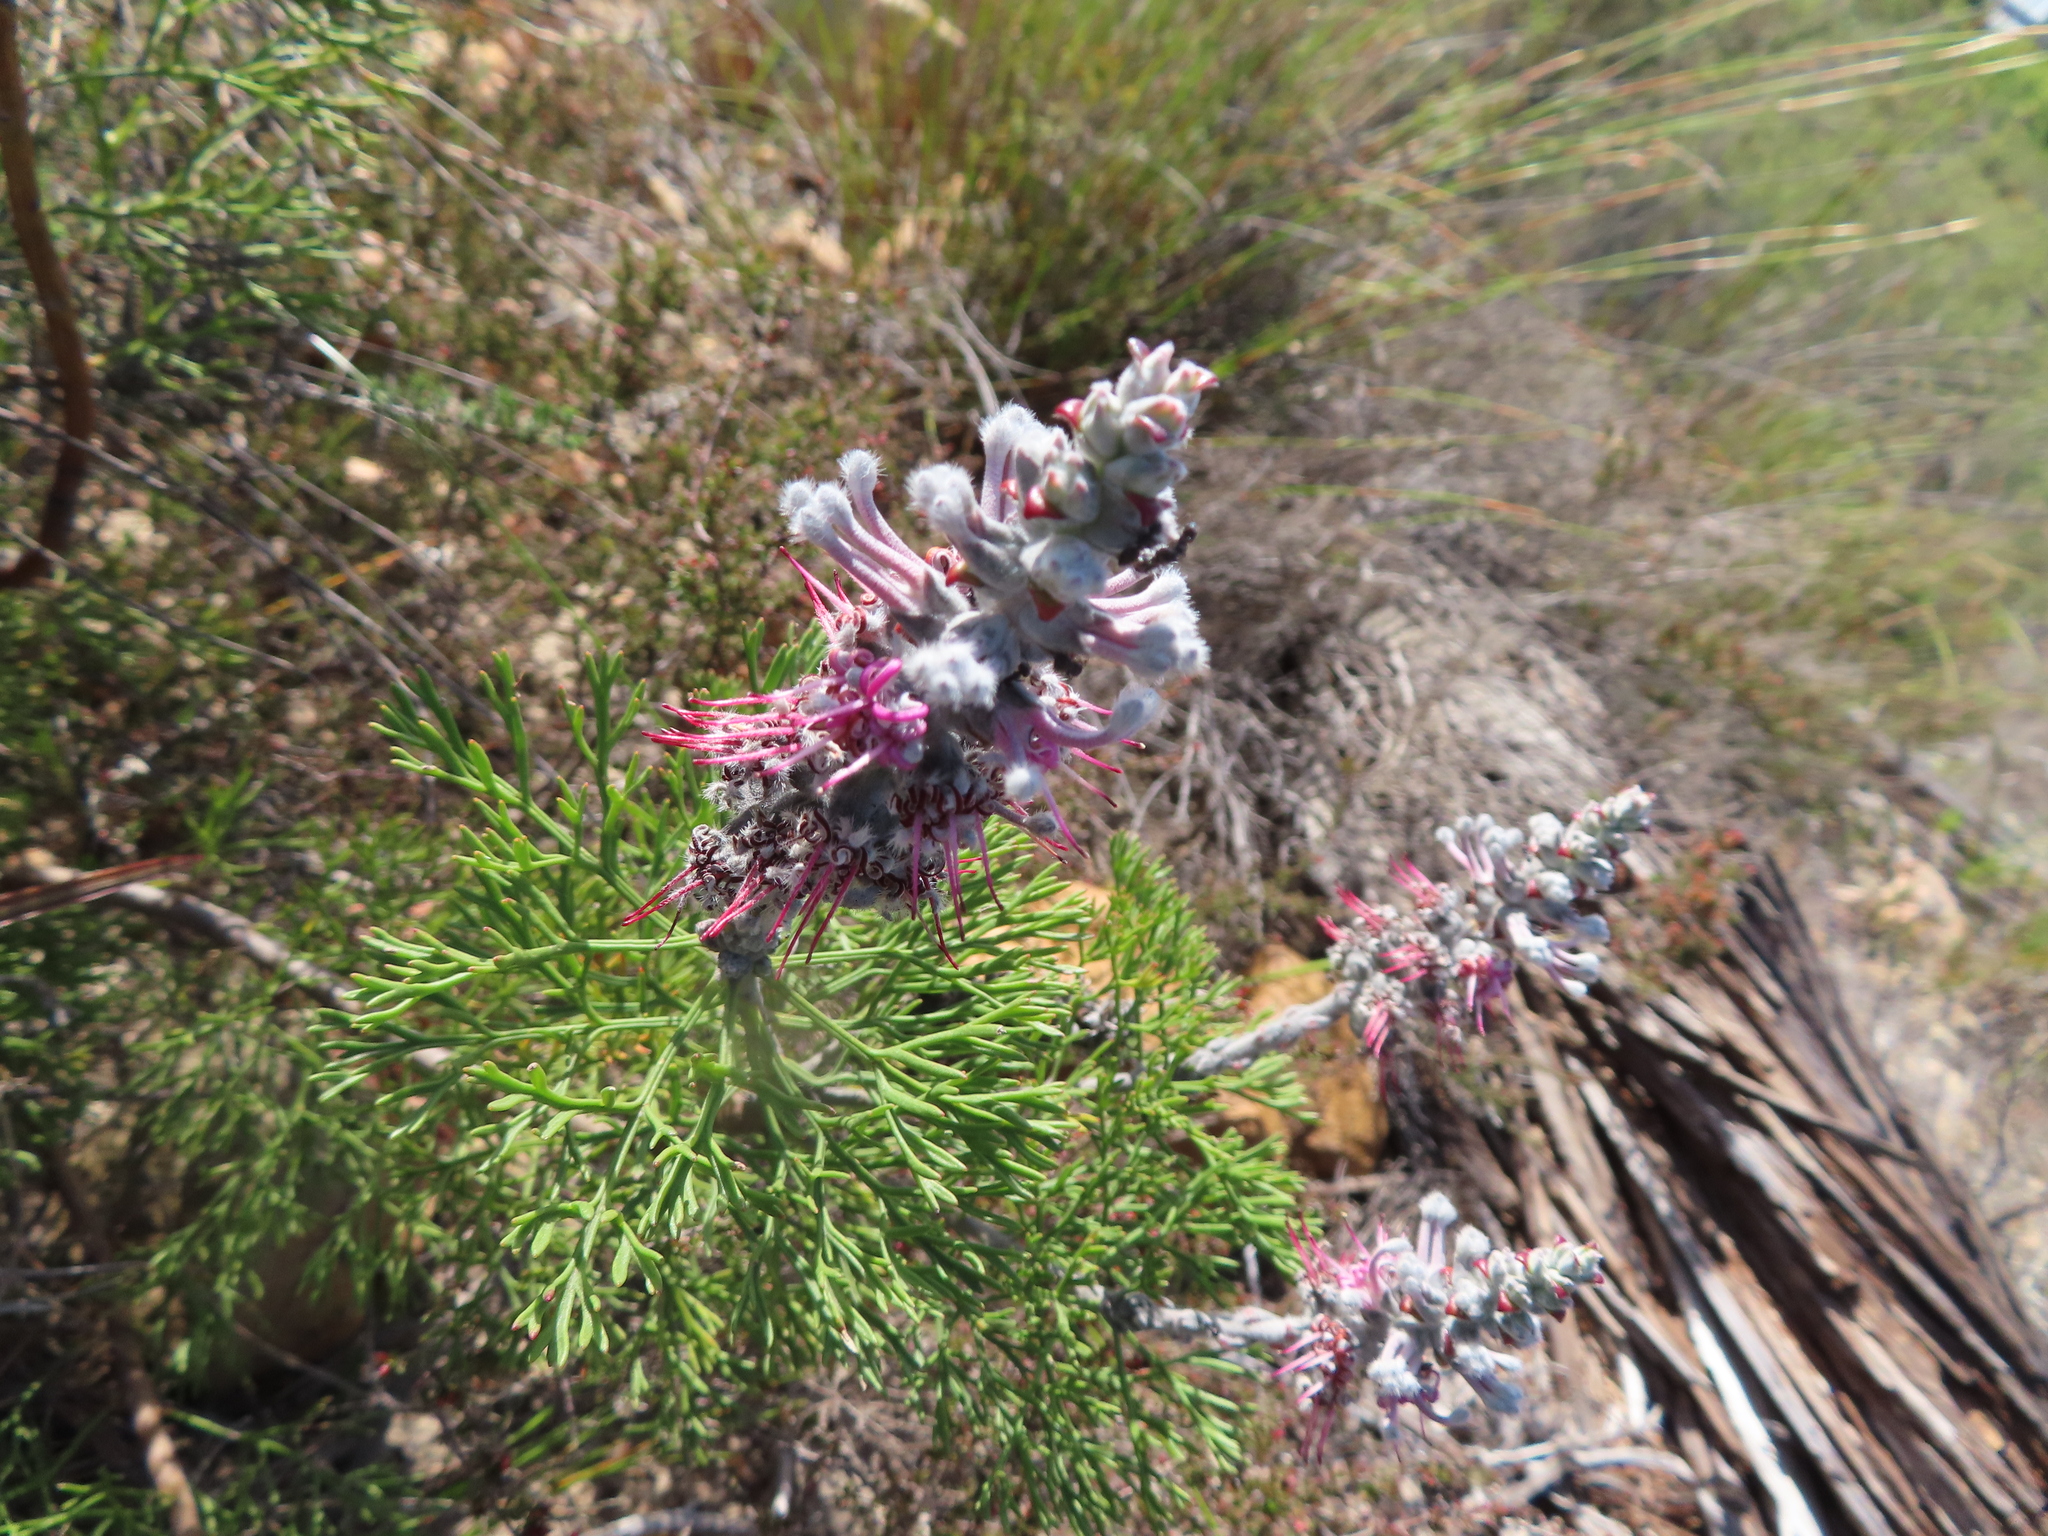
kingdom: Plantae
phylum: Tracheophyta
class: Magnoliopsida
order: Proteales
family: Proteaceae
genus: Paranomus
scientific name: Paranomus bolusii
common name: Overberg sceptre
